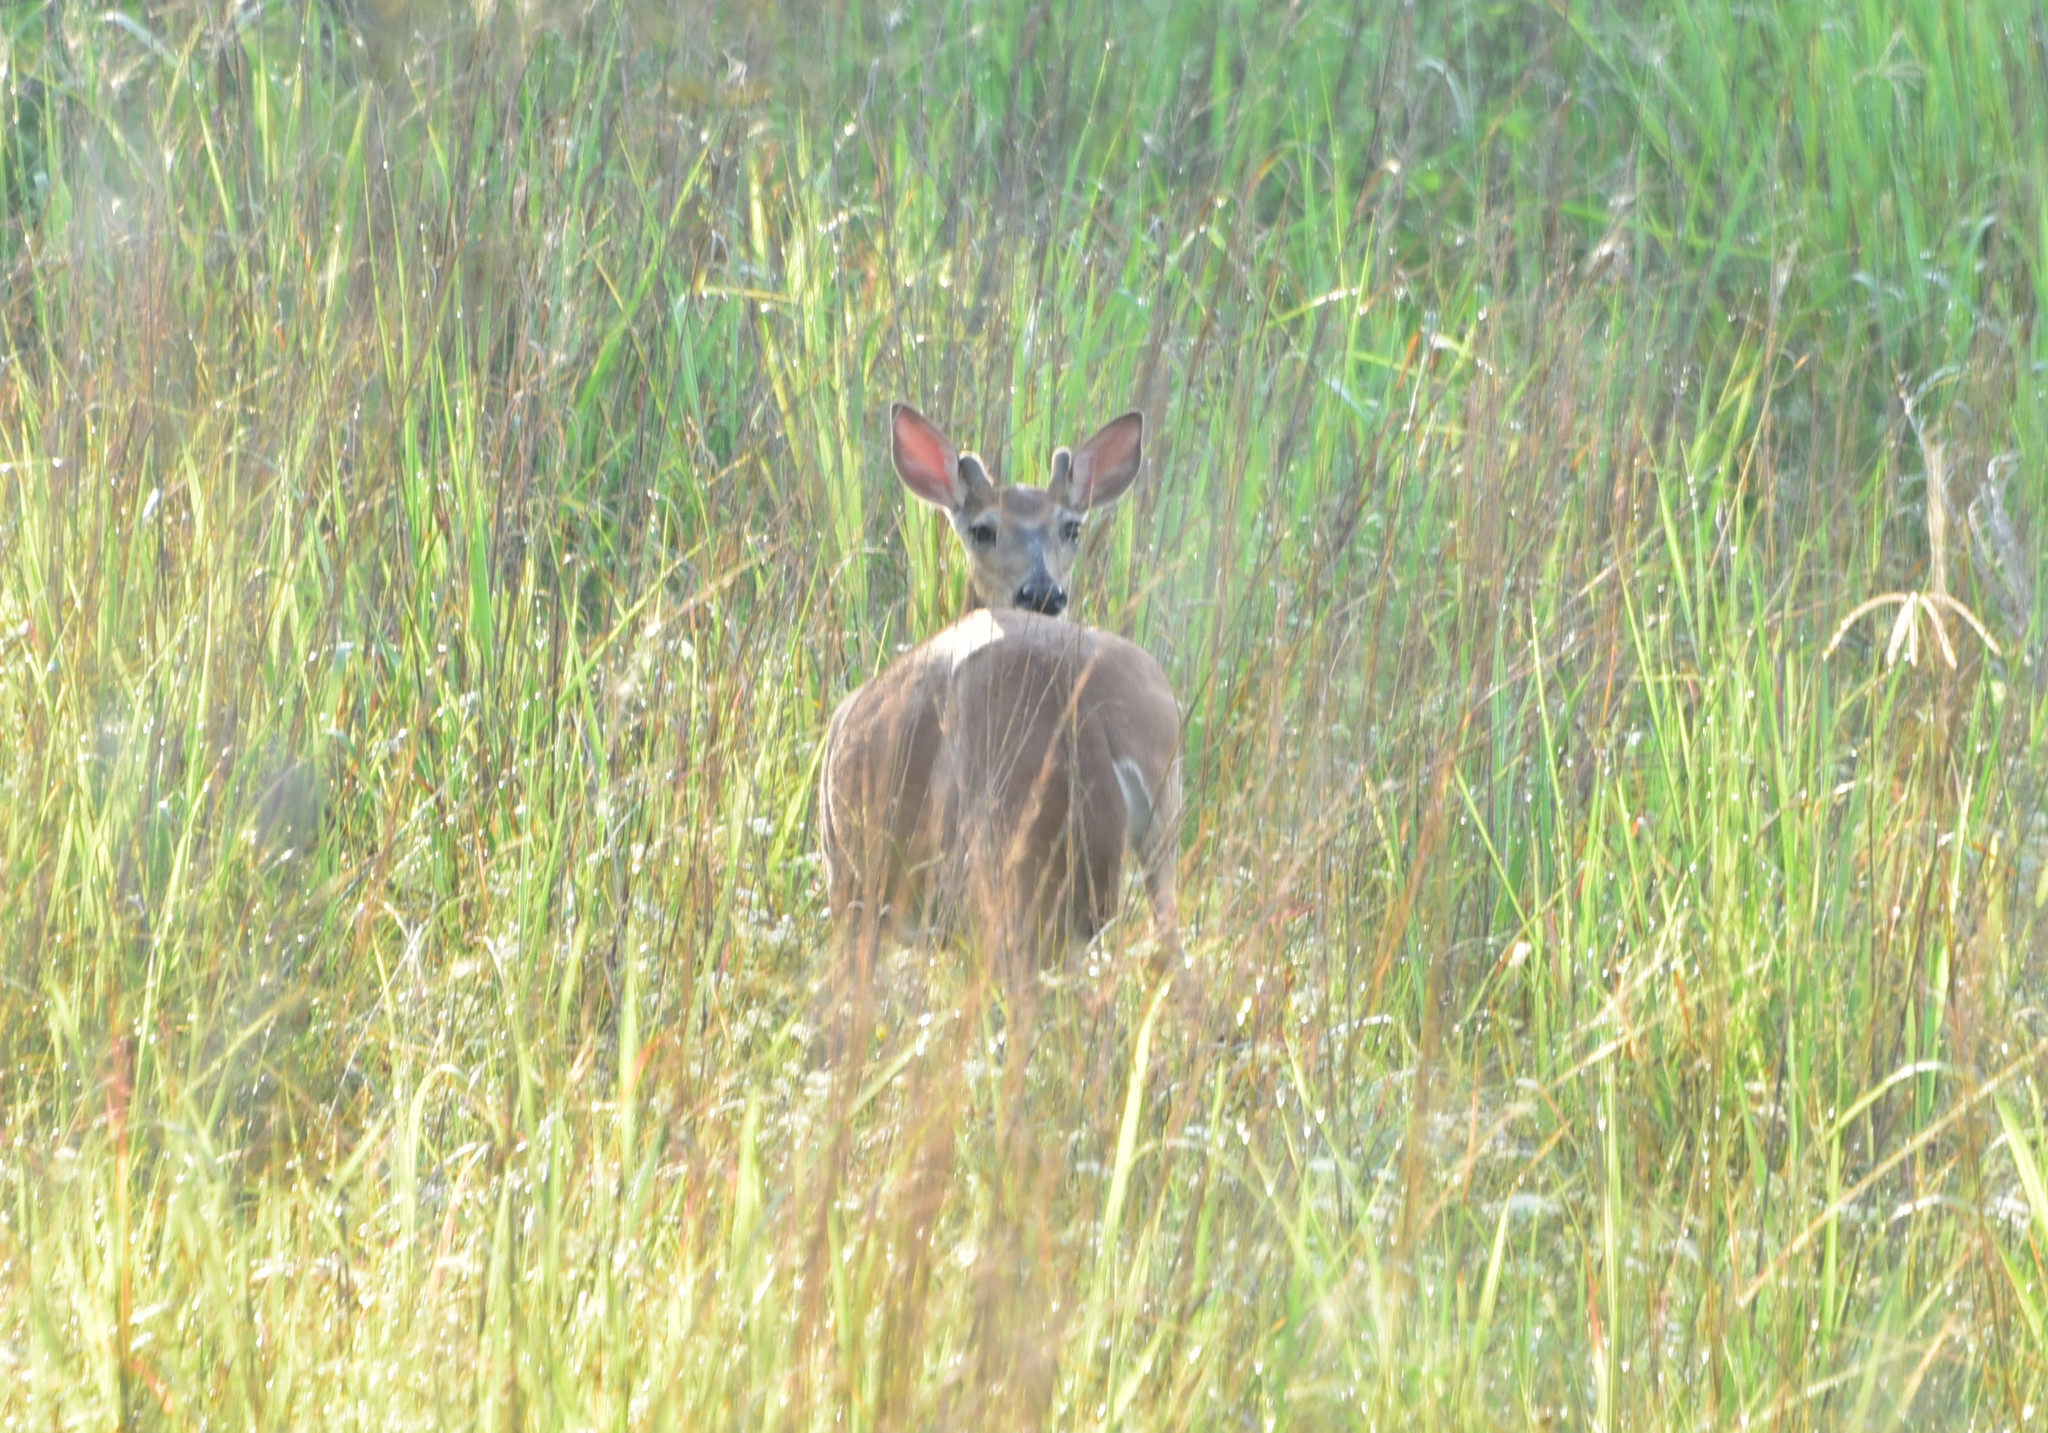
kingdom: Animalia
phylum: Chordata
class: Mammalia
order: Artiodactyla
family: Cervidae
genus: Odocoileus
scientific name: Odocoileus virginianus
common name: White-tailed deer
